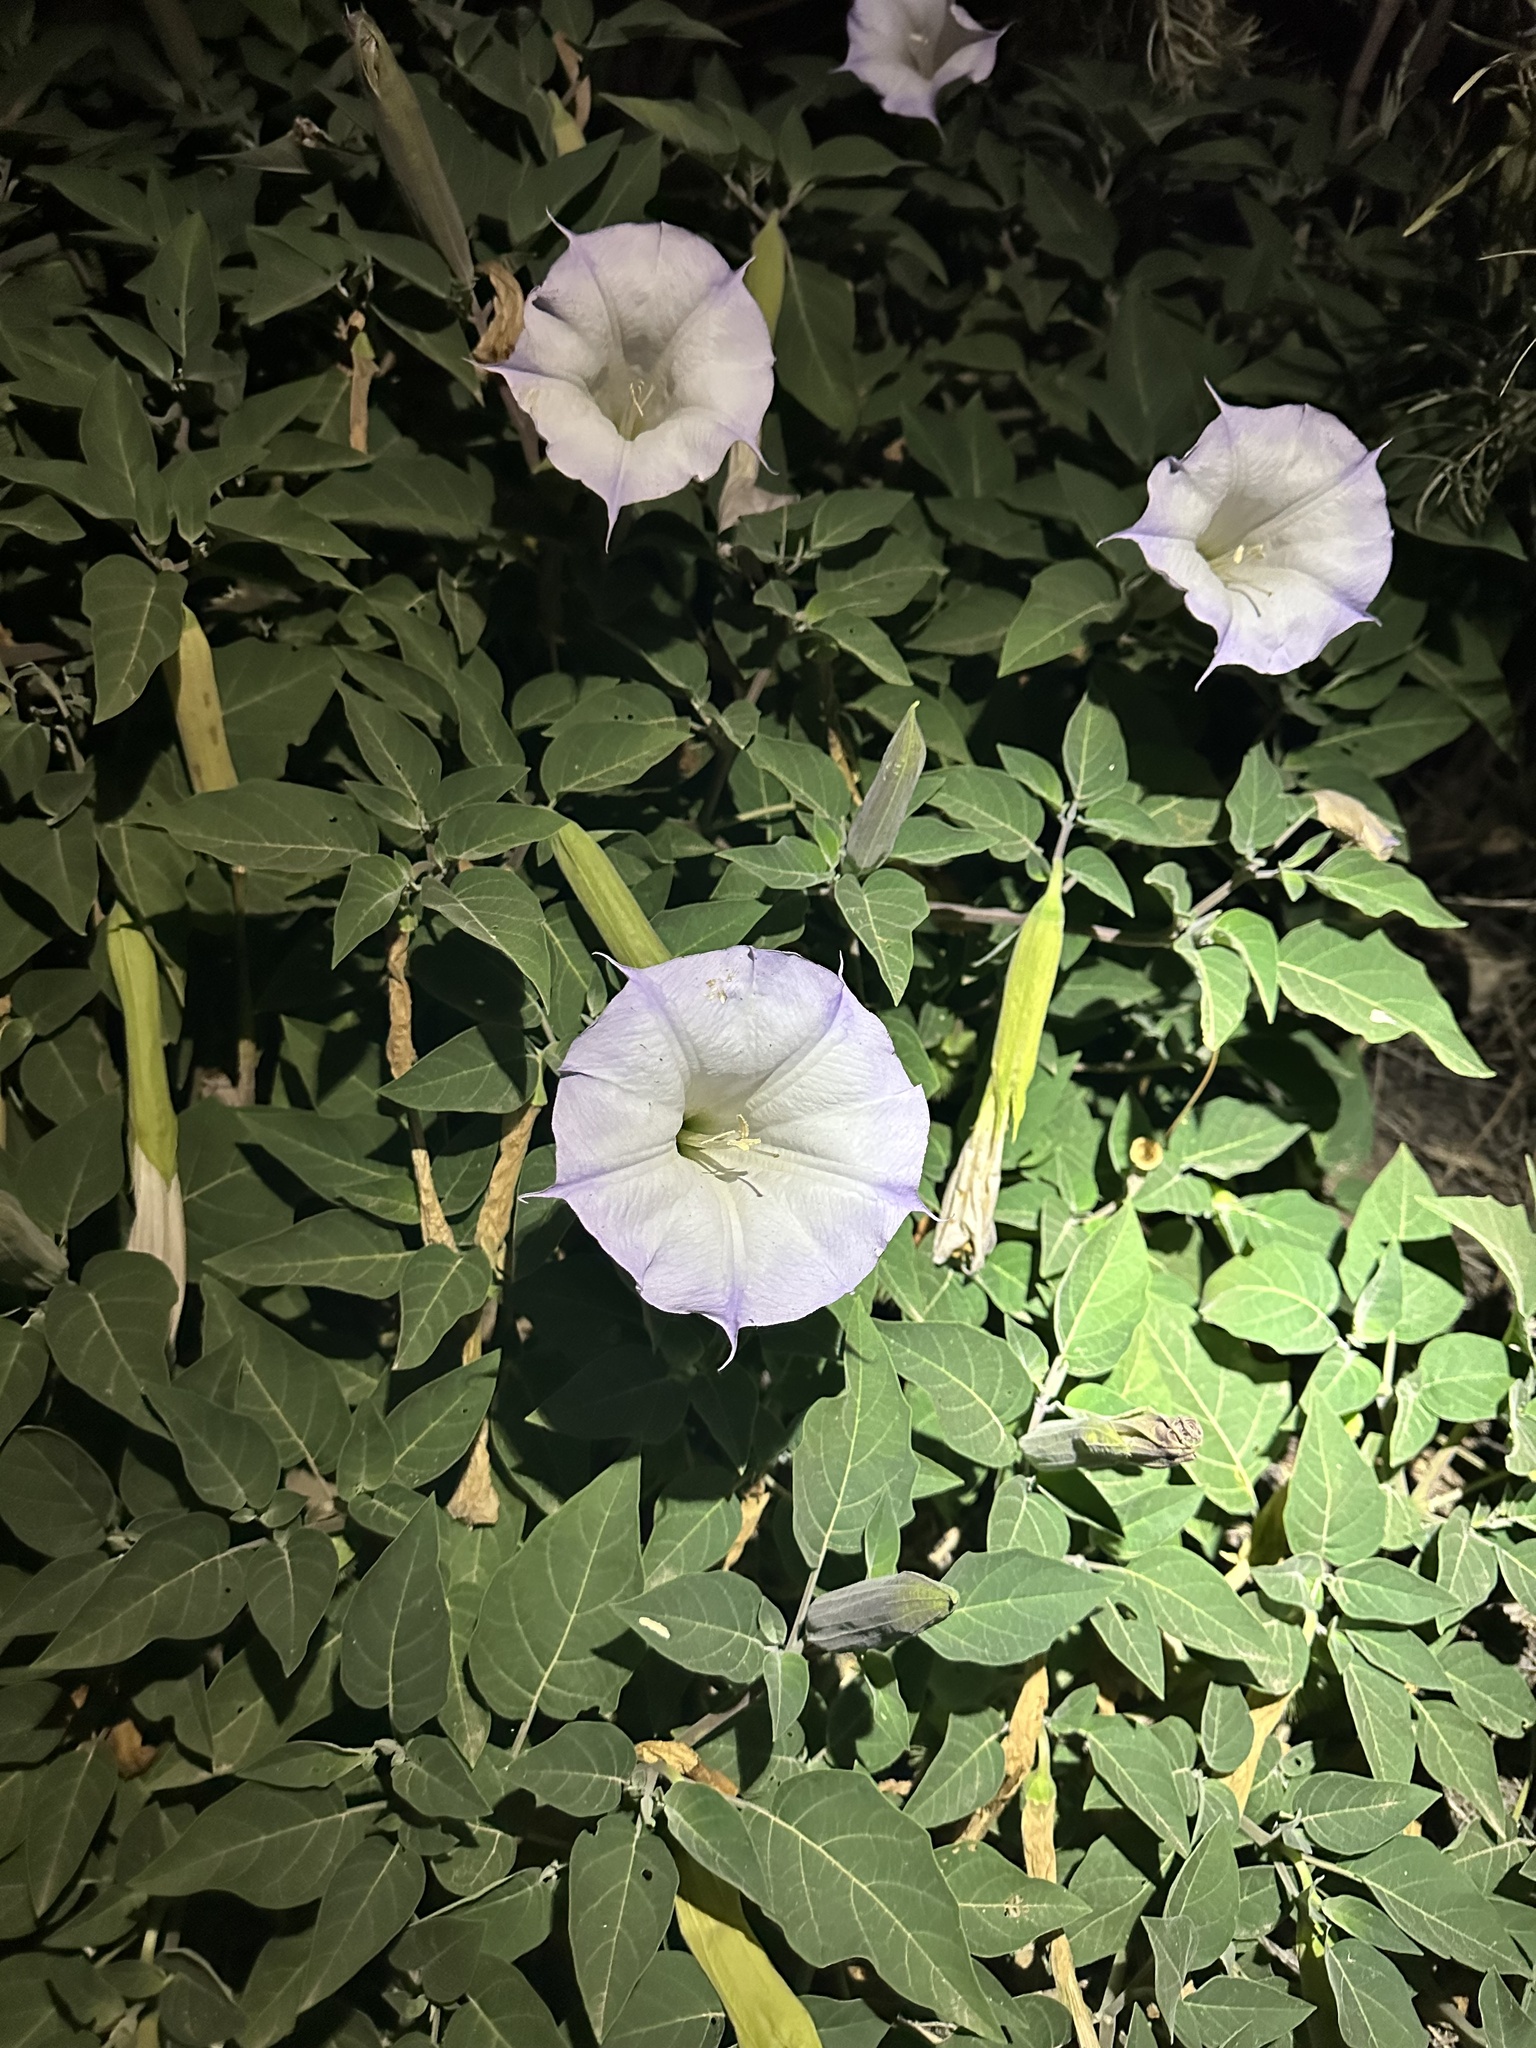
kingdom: Plantae
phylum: Tracheophyta
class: Magnoliopsida
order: Solanales
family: Solanaceae
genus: Datura
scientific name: Datura wrightii
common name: Sacred thorn-apple
